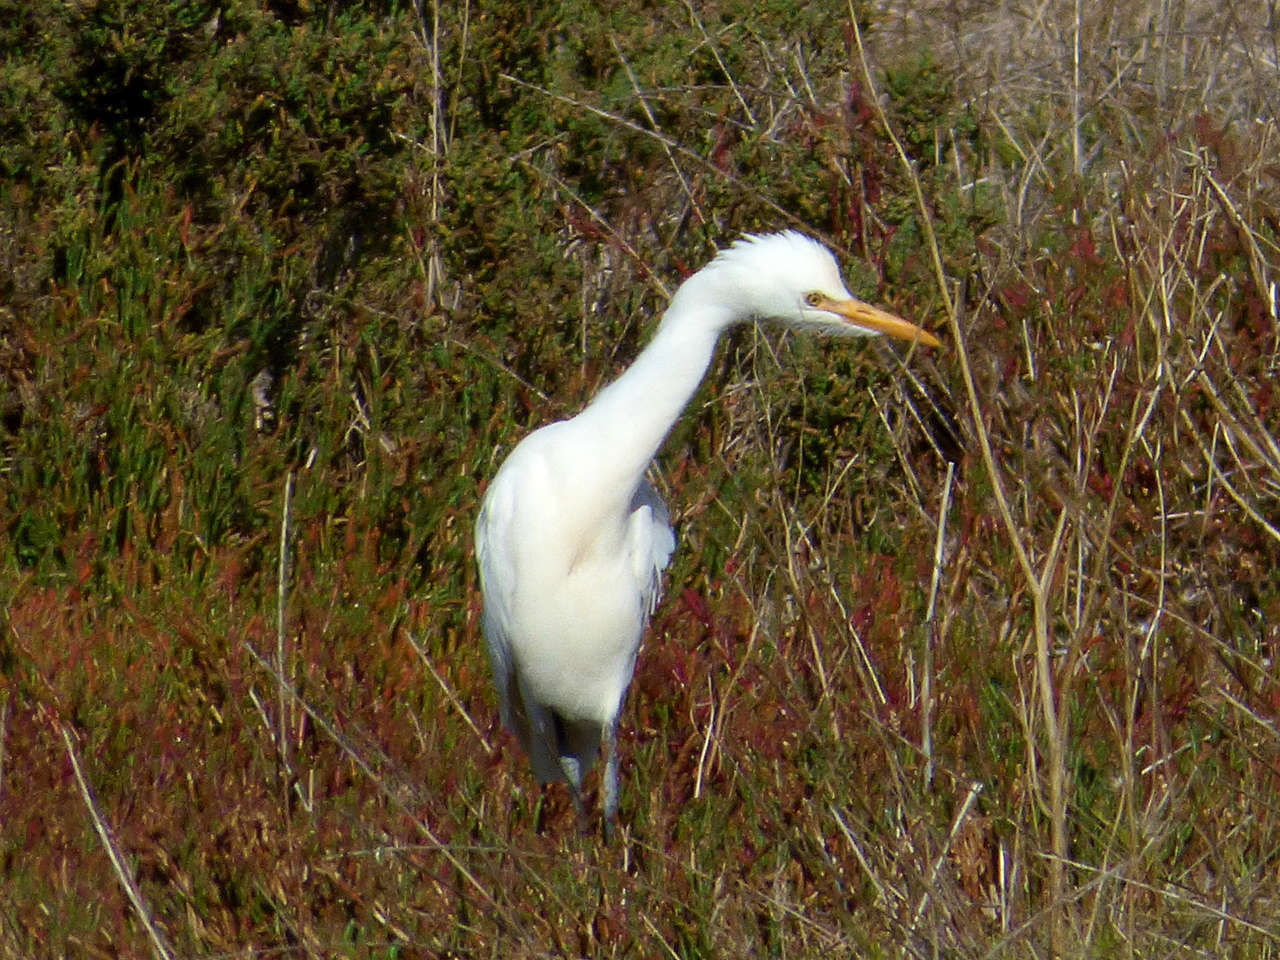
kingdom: Animalia
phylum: Chordata
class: Aves
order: Pelecaniformes
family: Ardeidae
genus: Bubulcus
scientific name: Bubulcus coromandus
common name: Eastern cattle egret
